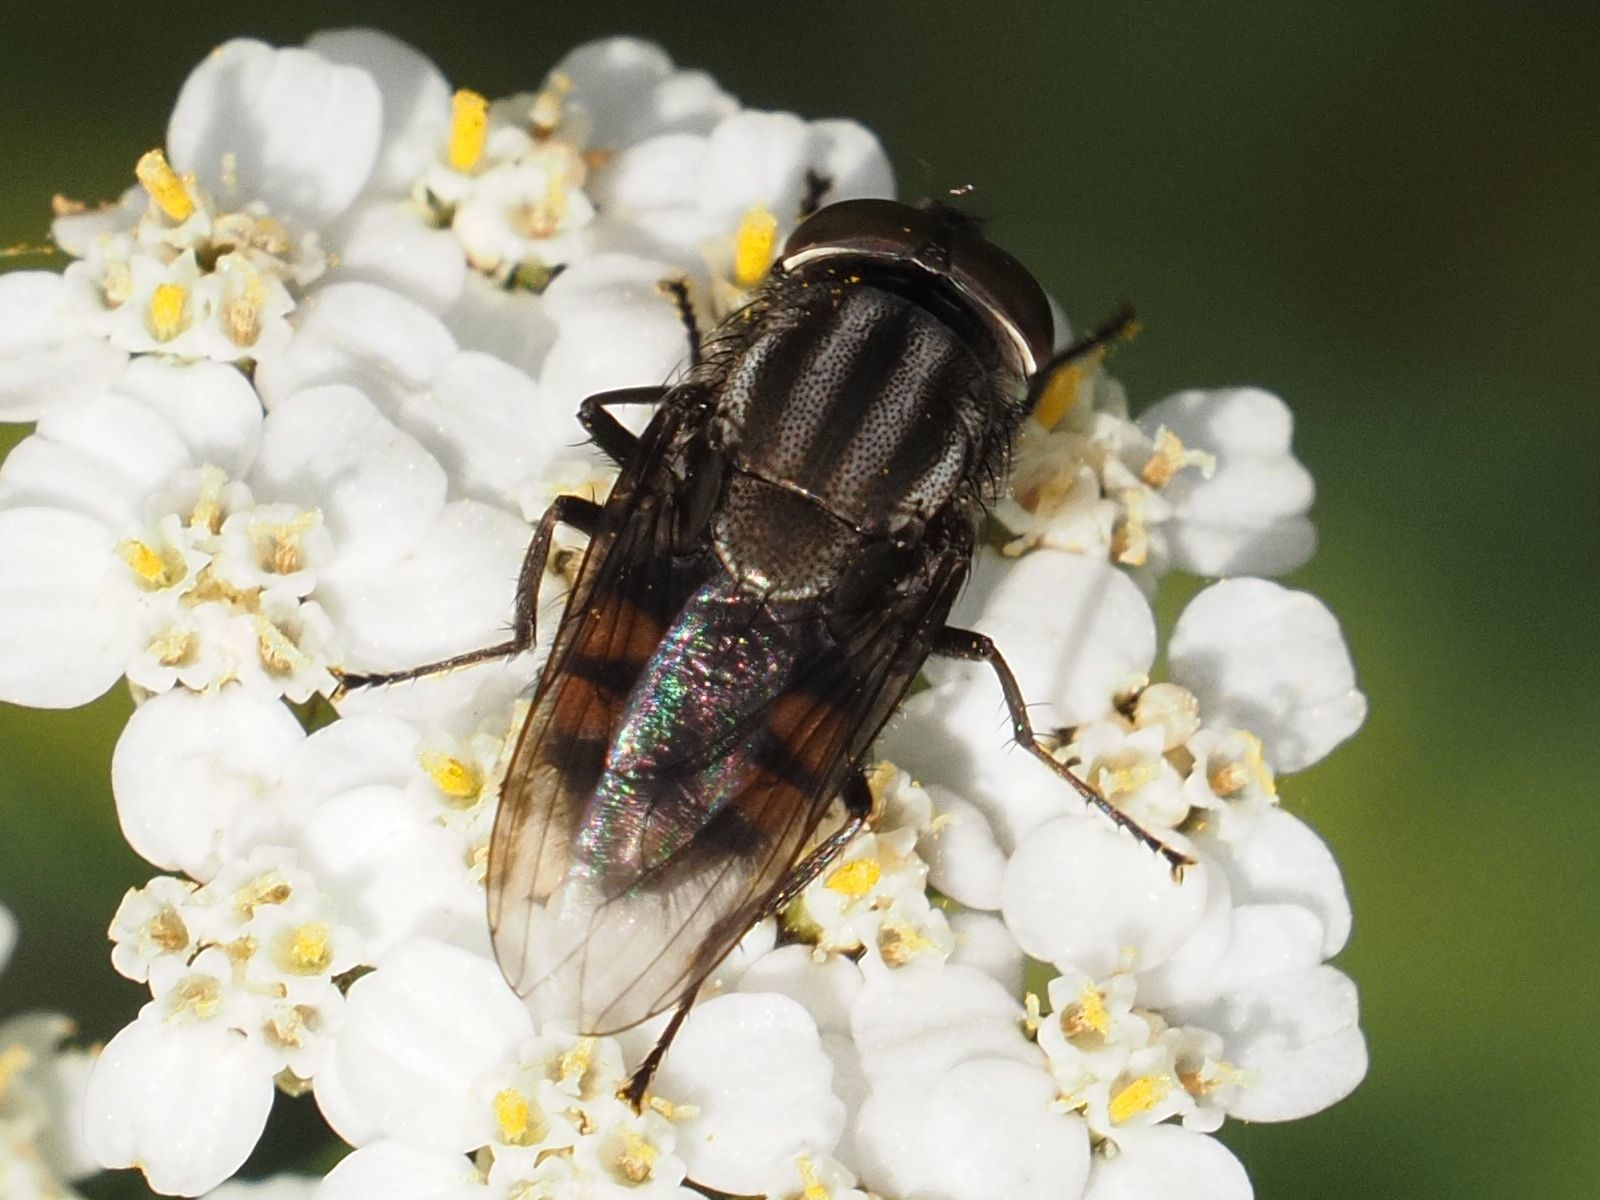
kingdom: Animalia
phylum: Arthropoda
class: Insecta
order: Diptera
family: Calliphoridae
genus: Stomorhina
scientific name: Stomorhina lunata
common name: Locust blowfly
